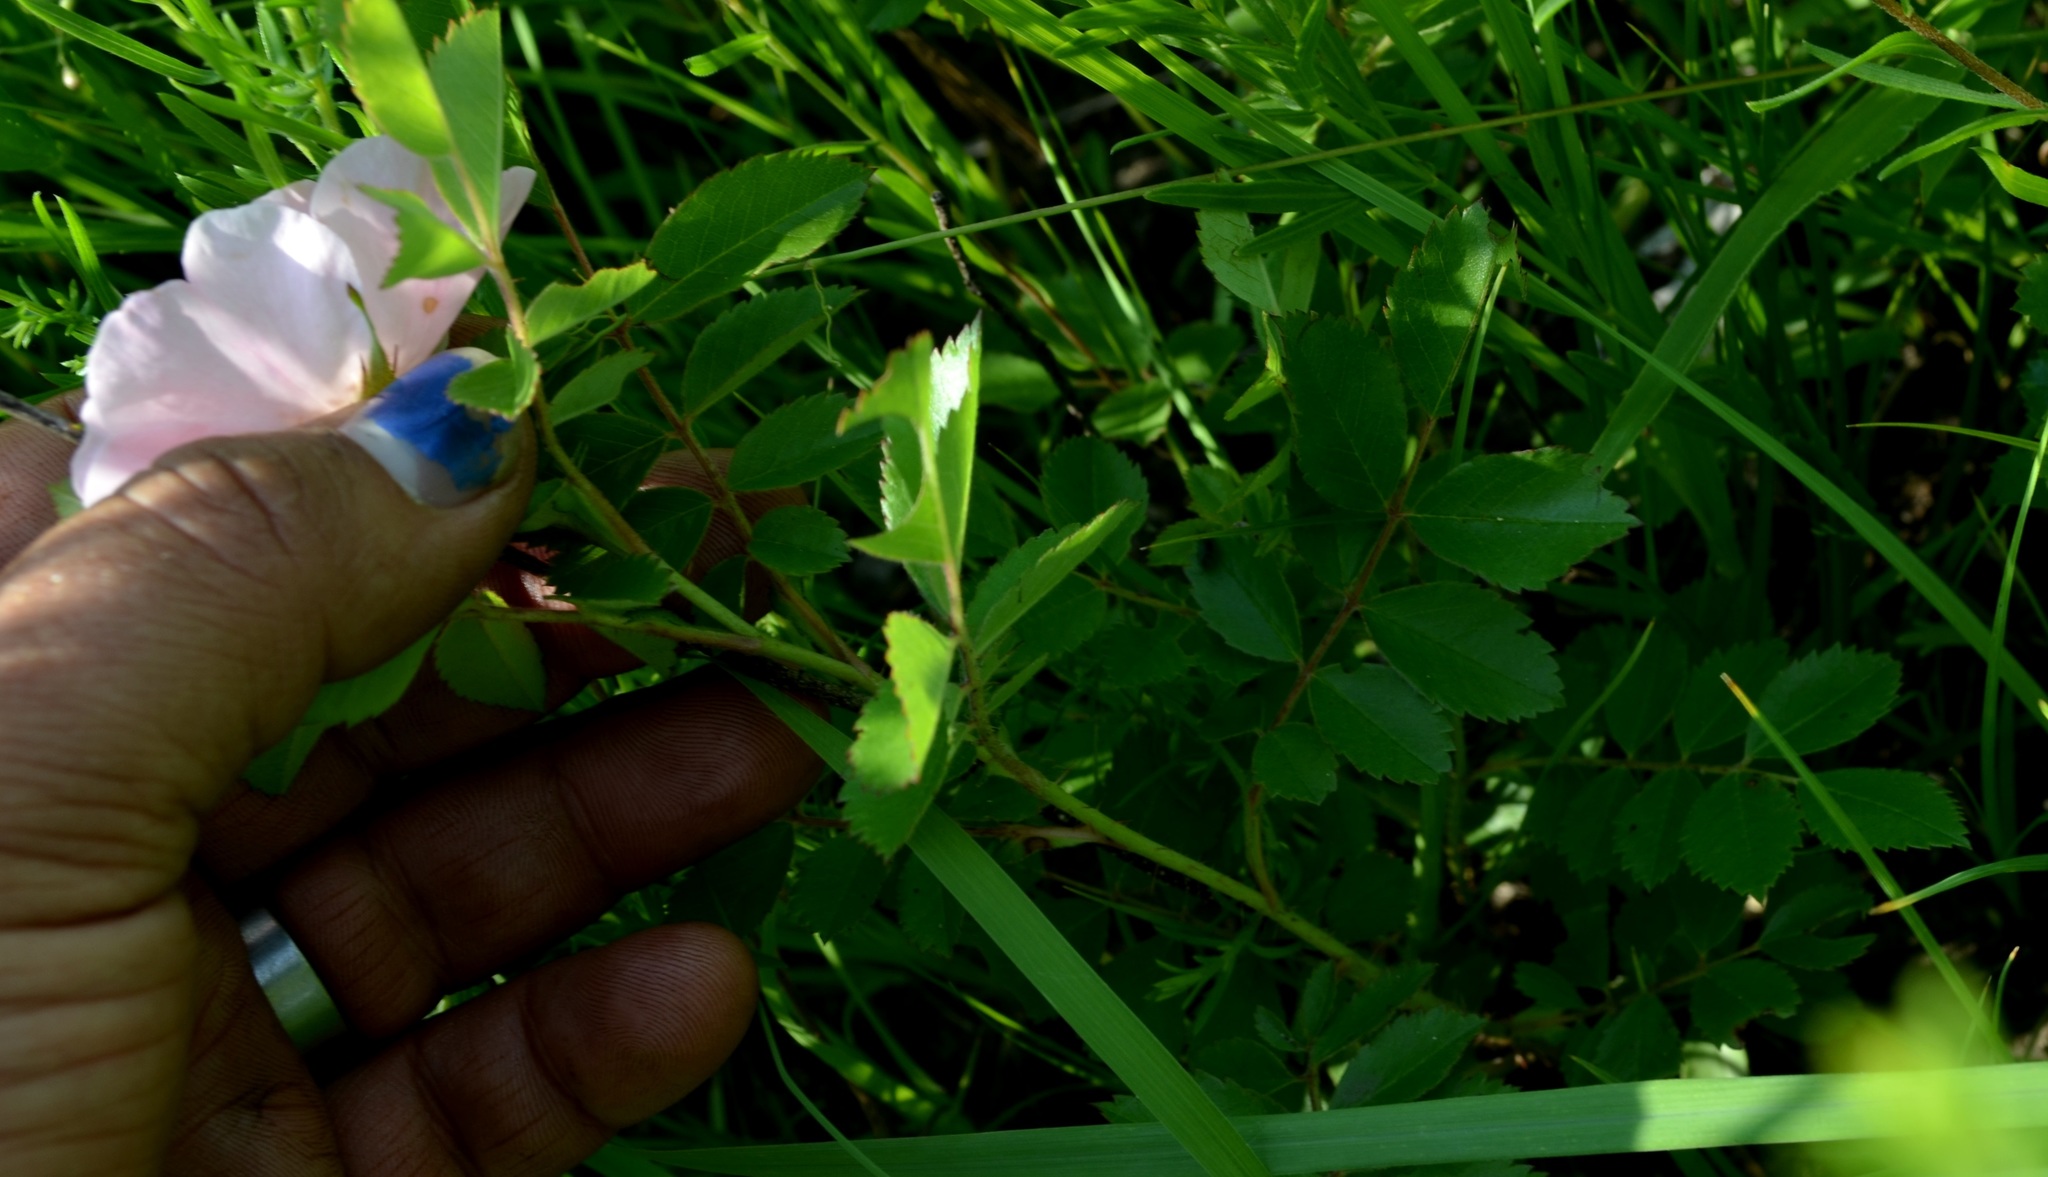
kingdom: Plantae
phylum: Tracheophyta
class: Magnoliopsida
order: Rosales
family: Rosaceae
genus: Rosa
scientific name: Rosa carolina
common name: Pasture rose
